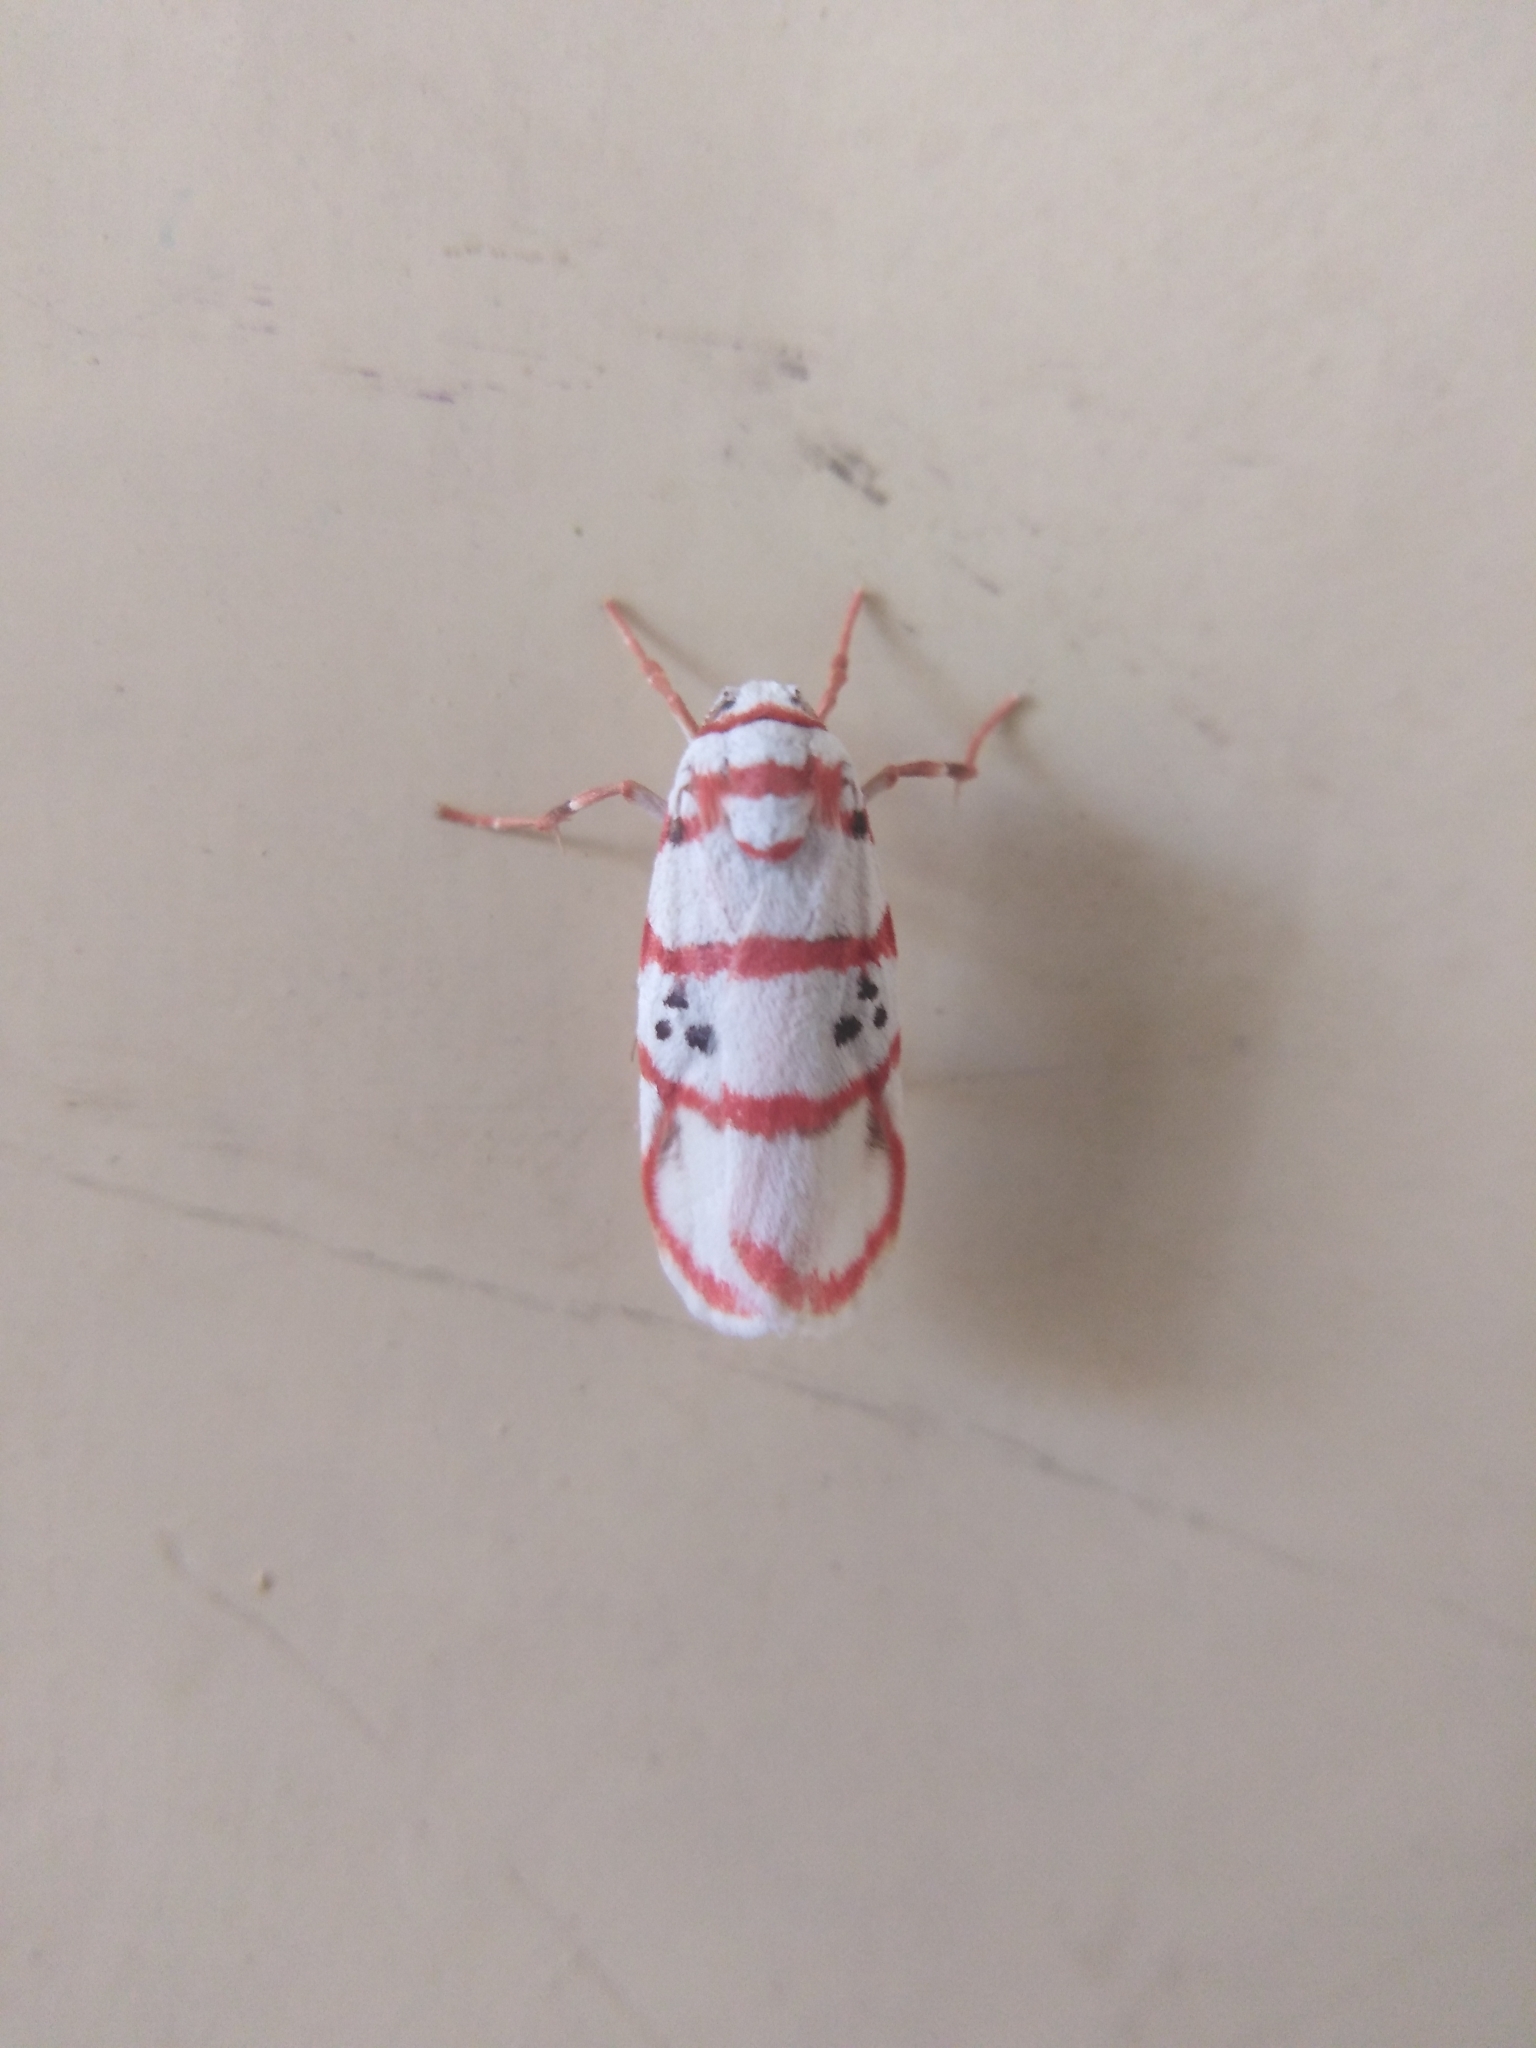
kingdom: Animalia
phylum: Arthropoda
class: Insecta
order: Lepidoptera
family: Erebidae
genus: Cyana
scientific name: Cyana peregrina
